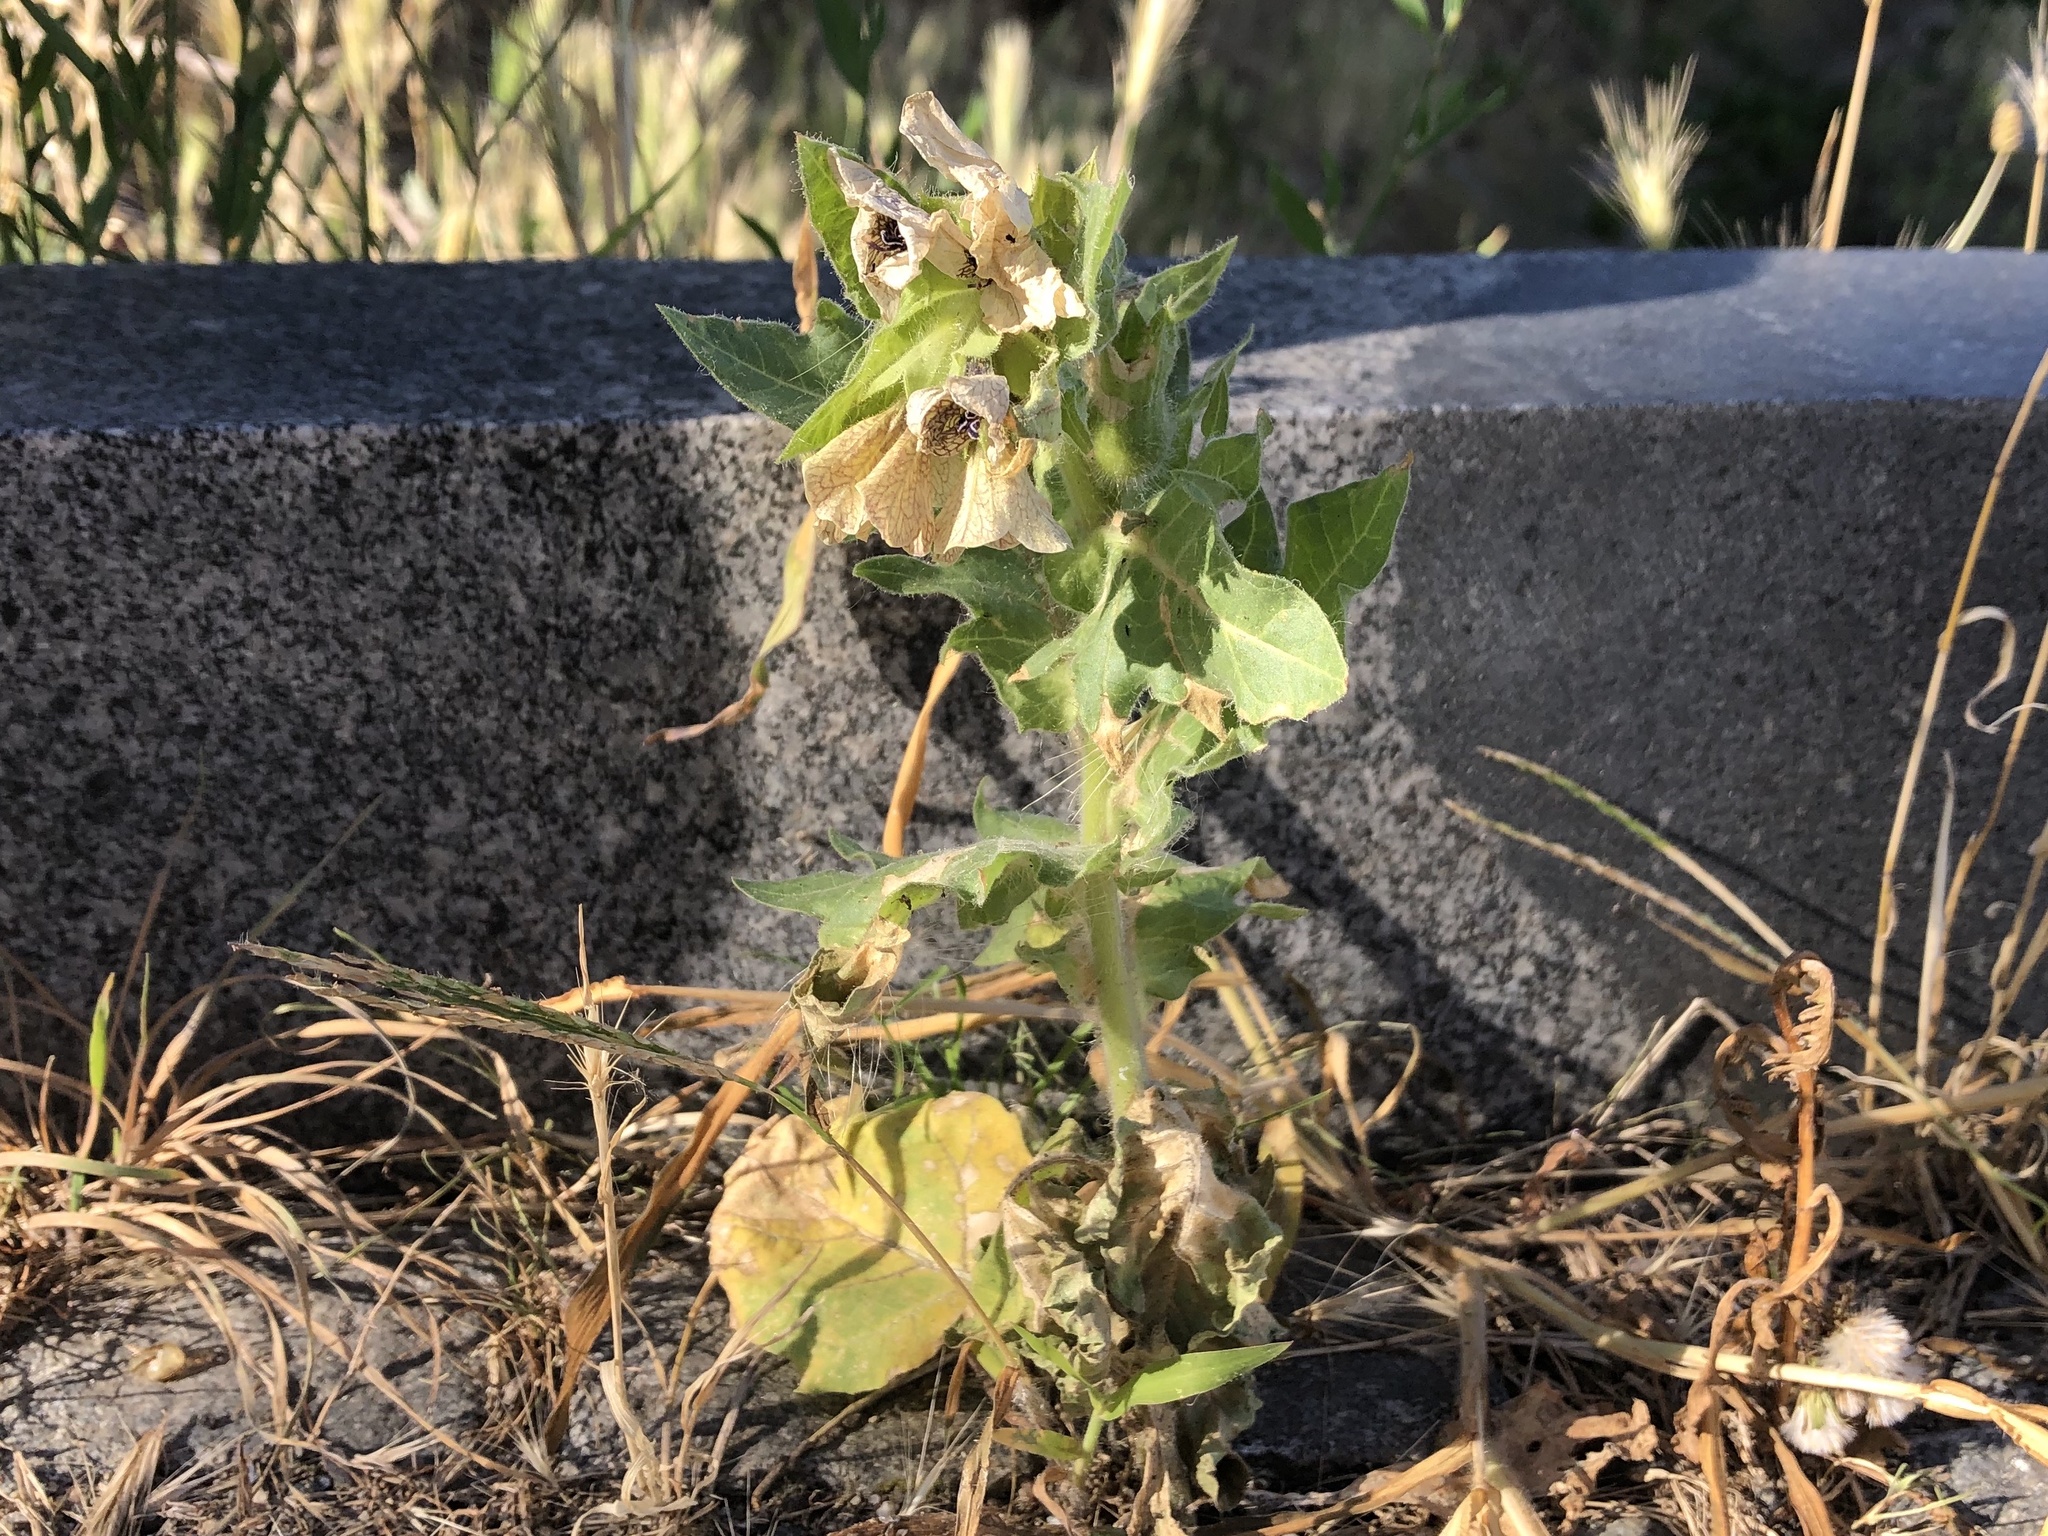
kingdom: Plantae
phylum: Tracheophyta
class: Magnoliopsida
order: Solanales
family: Solanaceae
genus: Hyoscyamus
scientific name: Hyoscyamus niger
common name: Henbane
